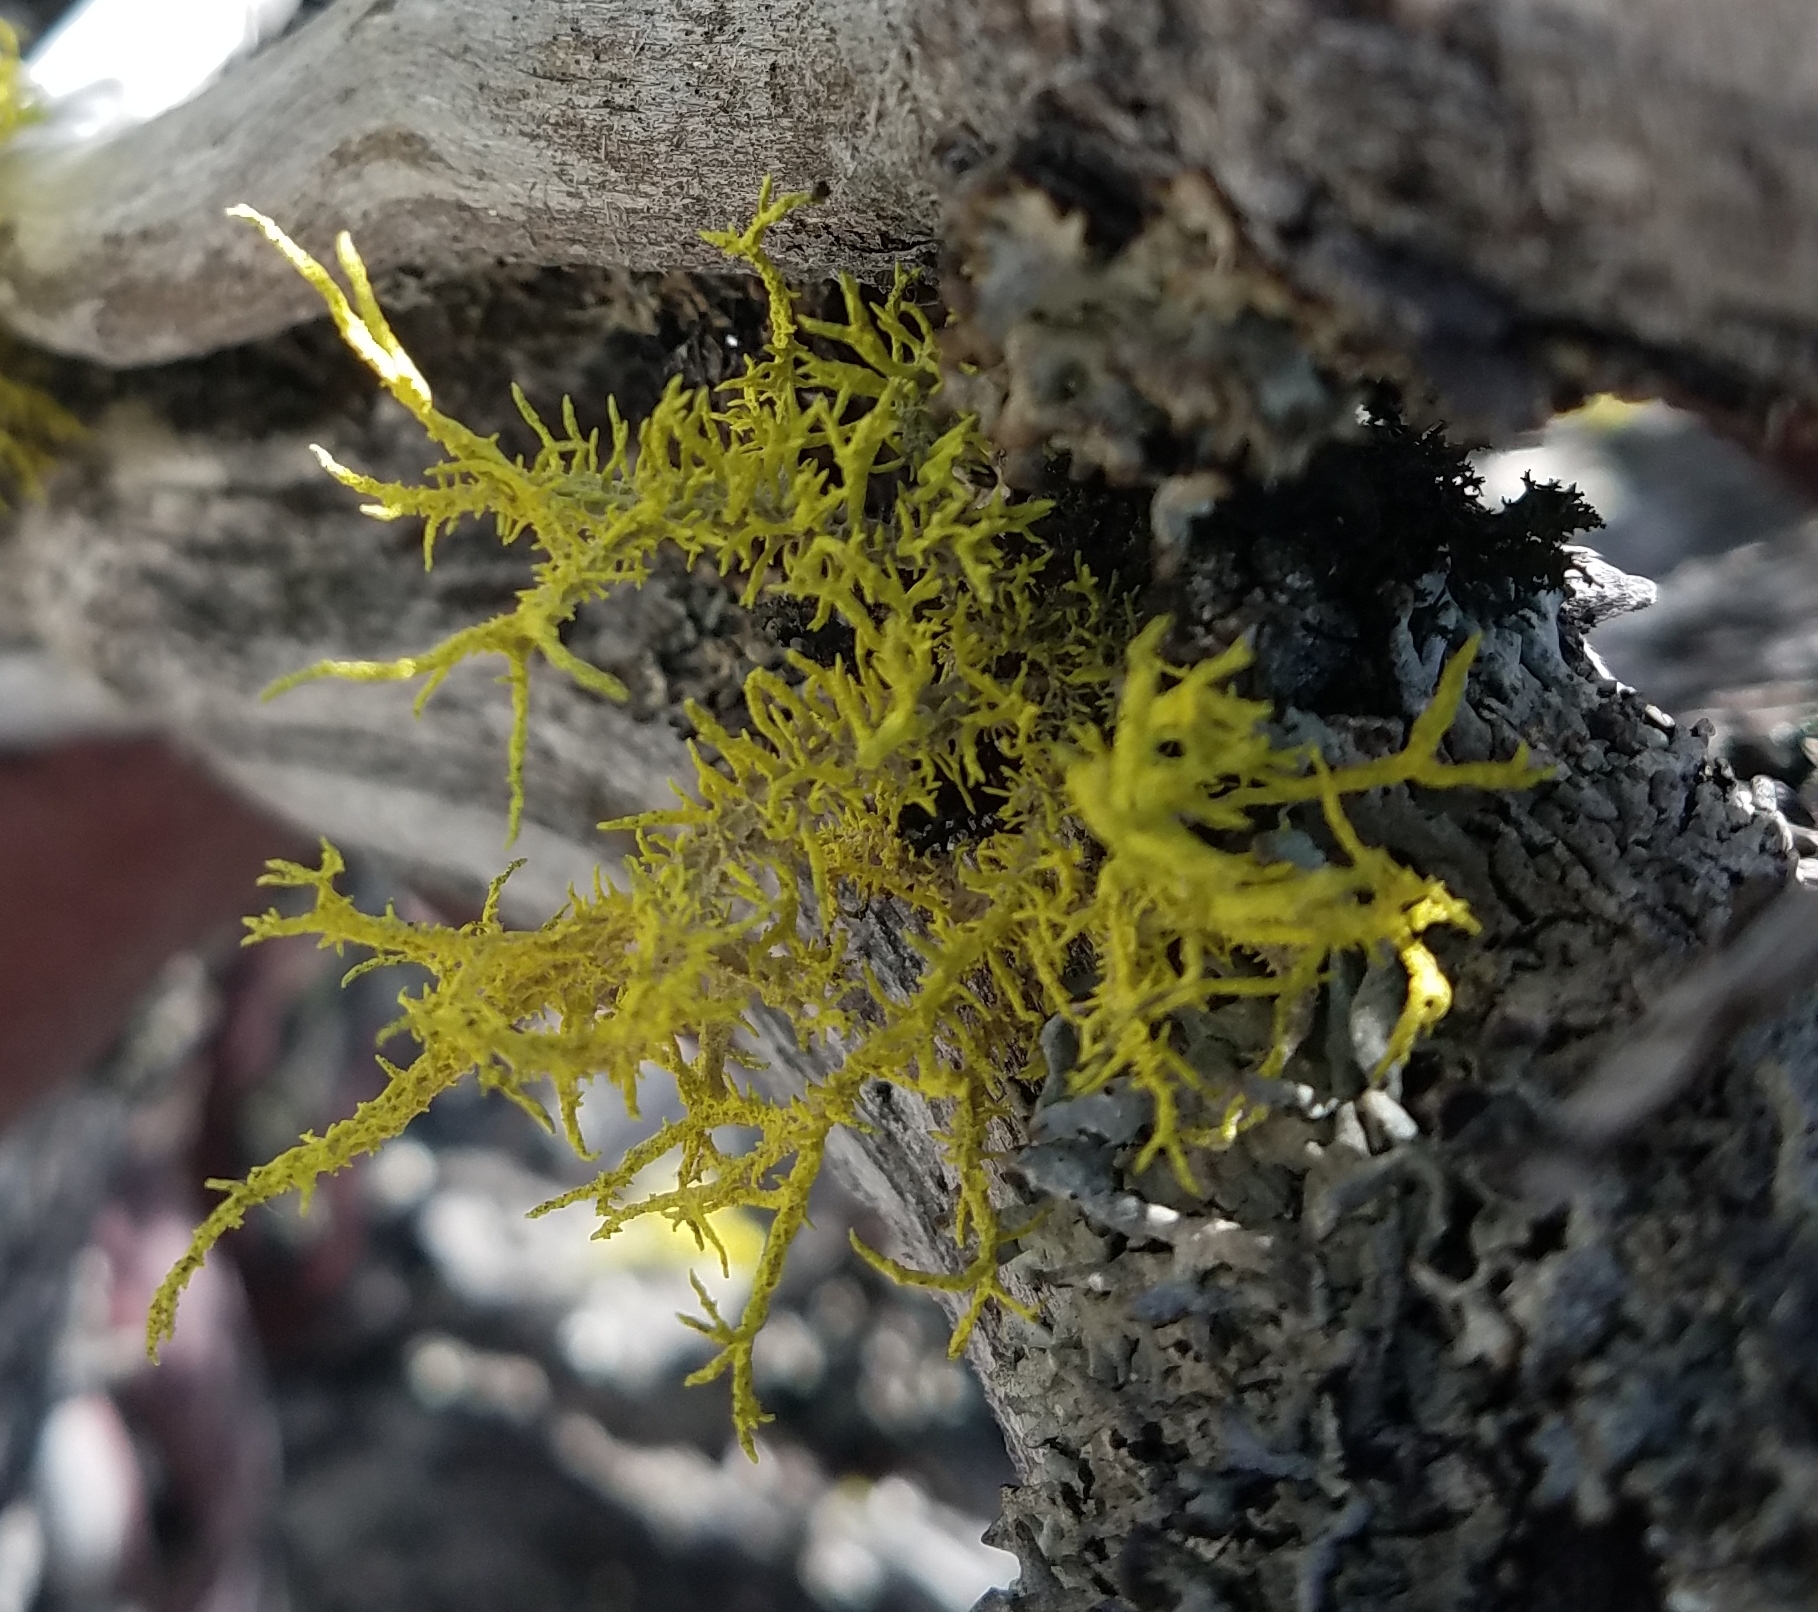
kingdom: Fungi
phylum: Ascomycota
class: Lecanoromycetes
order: Lecanorales
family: Parmeliaceae
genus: Letharia
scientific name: Letharia vulpina
